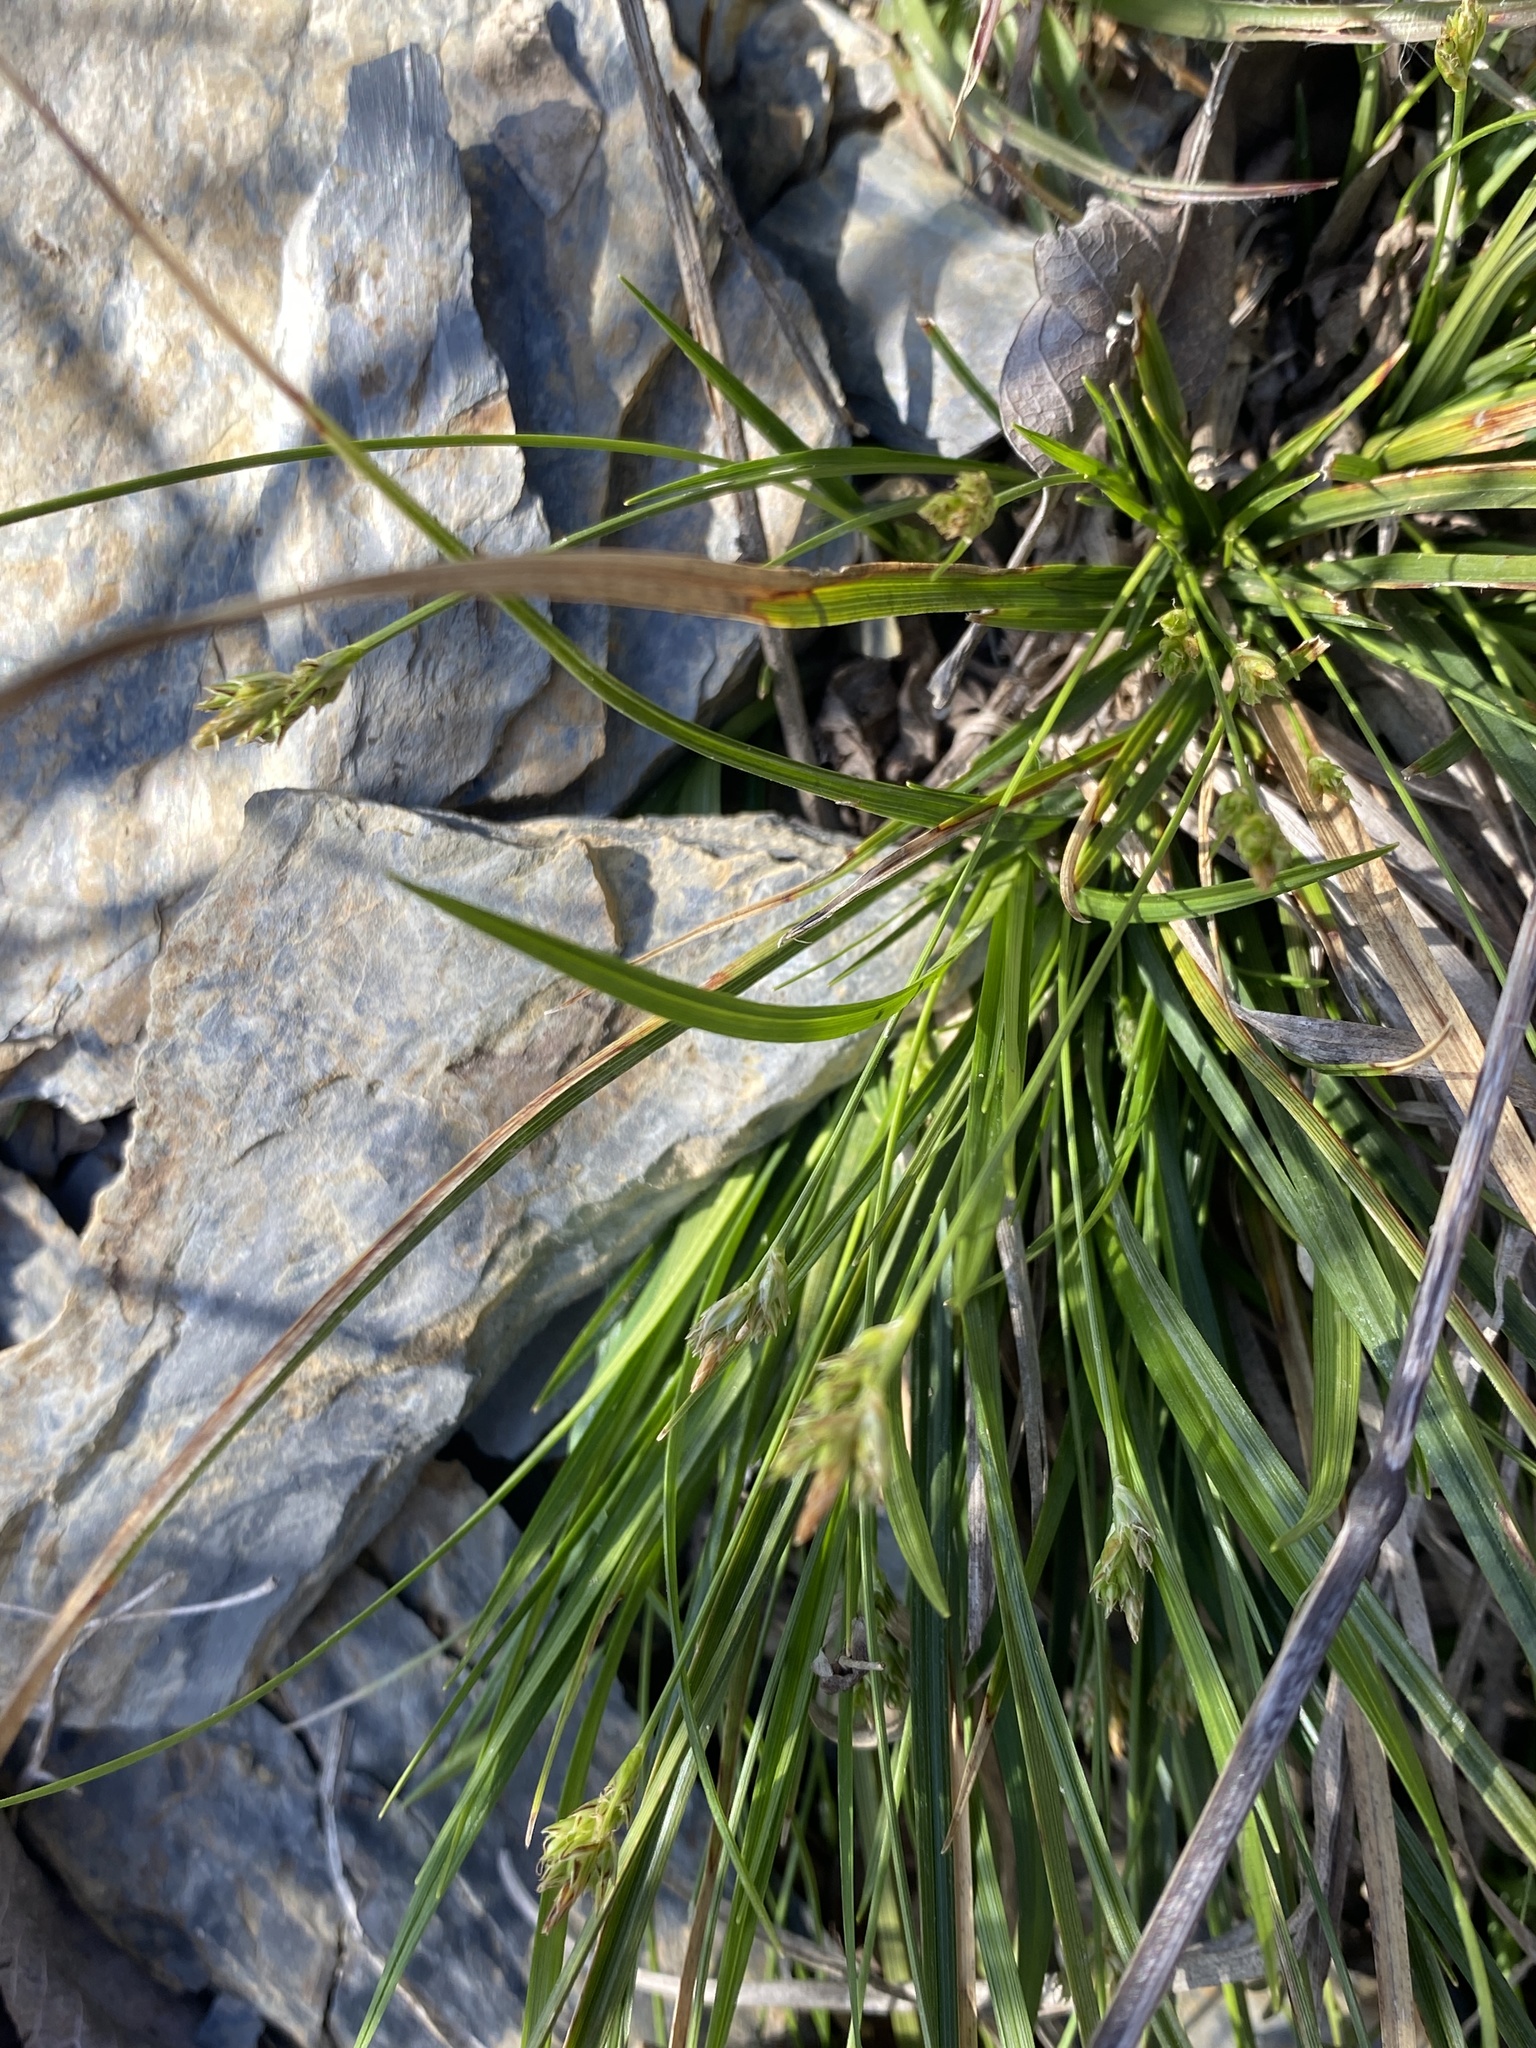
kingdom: Plantae
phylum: Tracheophyta
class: Liliopsida
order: Poales
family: Cyperaceae
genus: Carex
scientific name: Carex nigromarginata
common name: Black-edged sedge
